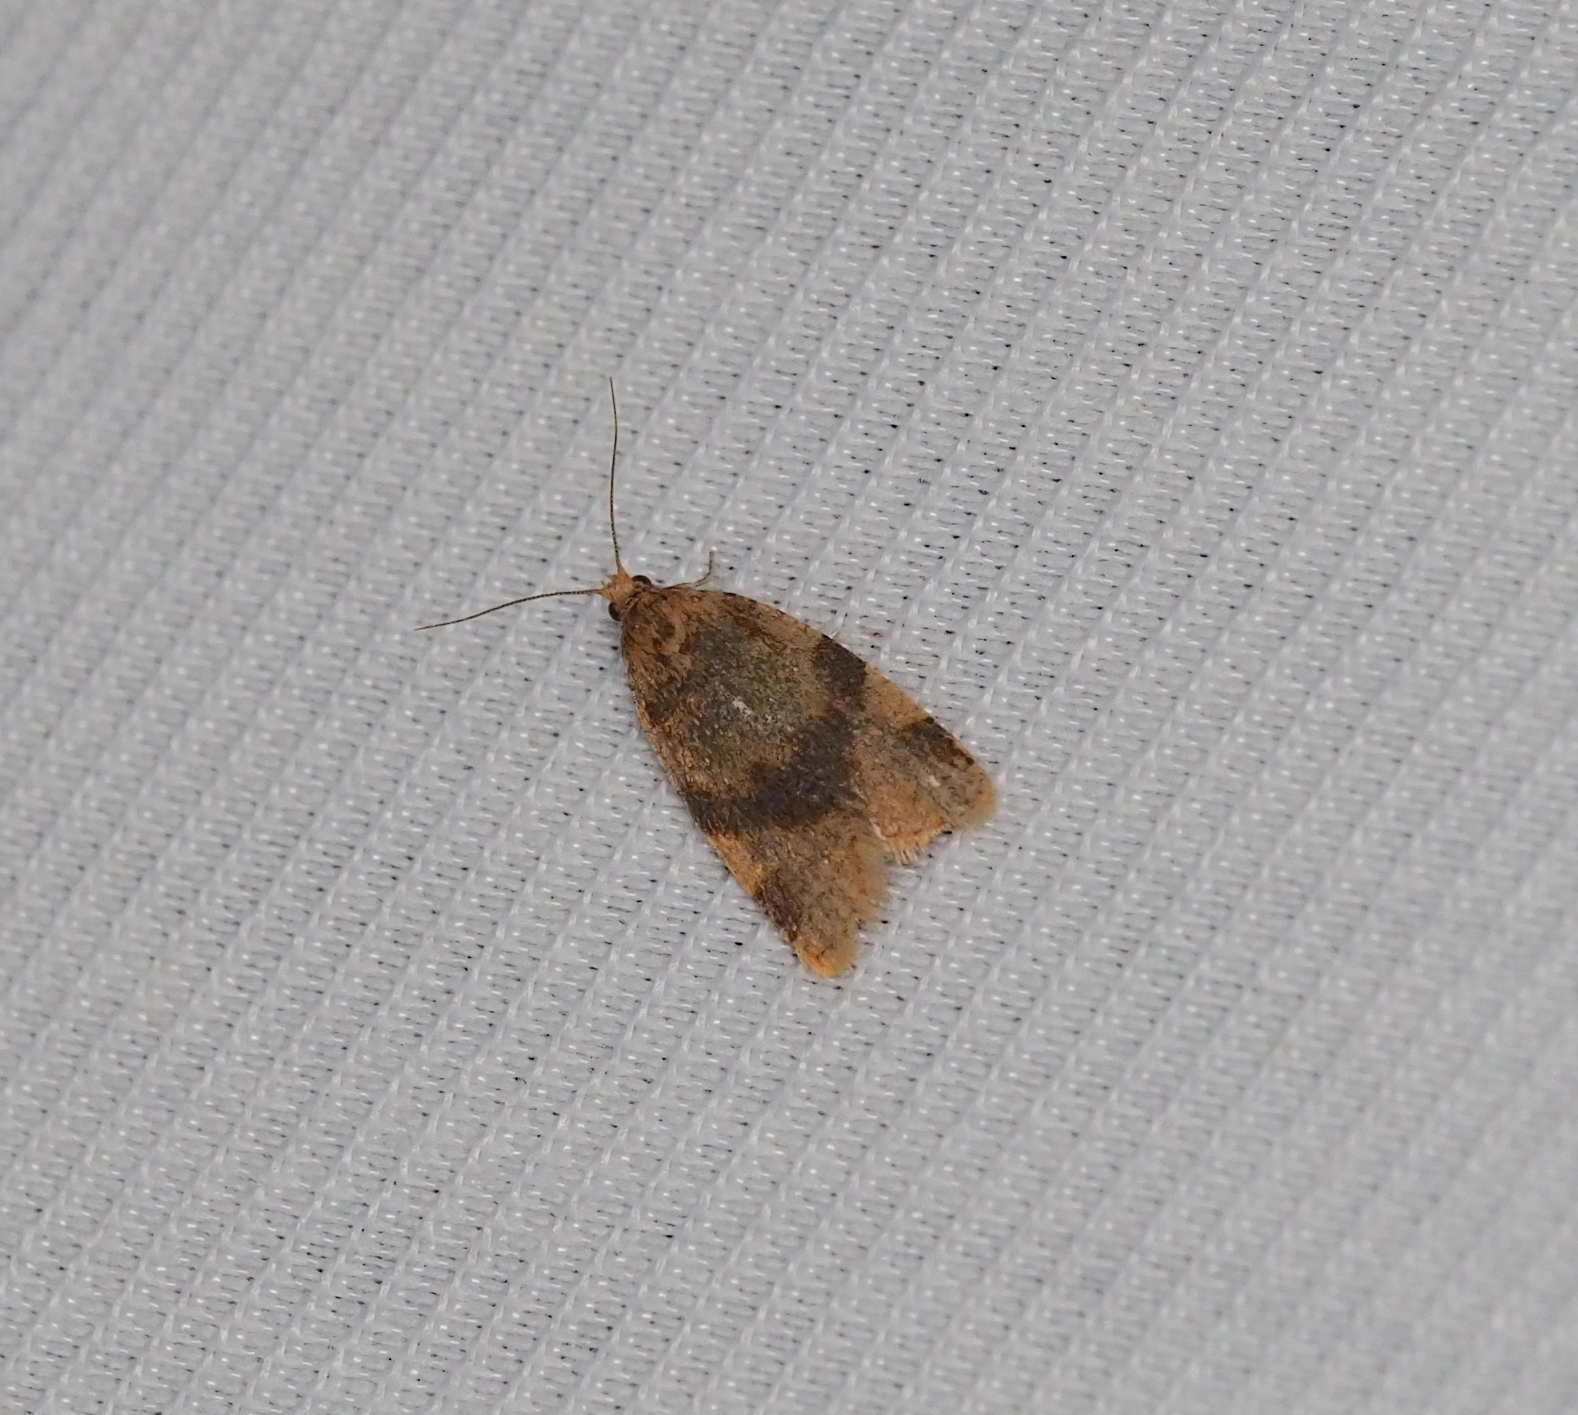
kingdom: Animalia
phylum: Arthropoda
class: Insecta
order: Lepidoptera
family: Tortricidae
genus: Epagoge
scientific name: Epagoge grotiana
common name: Brown-barred twist
